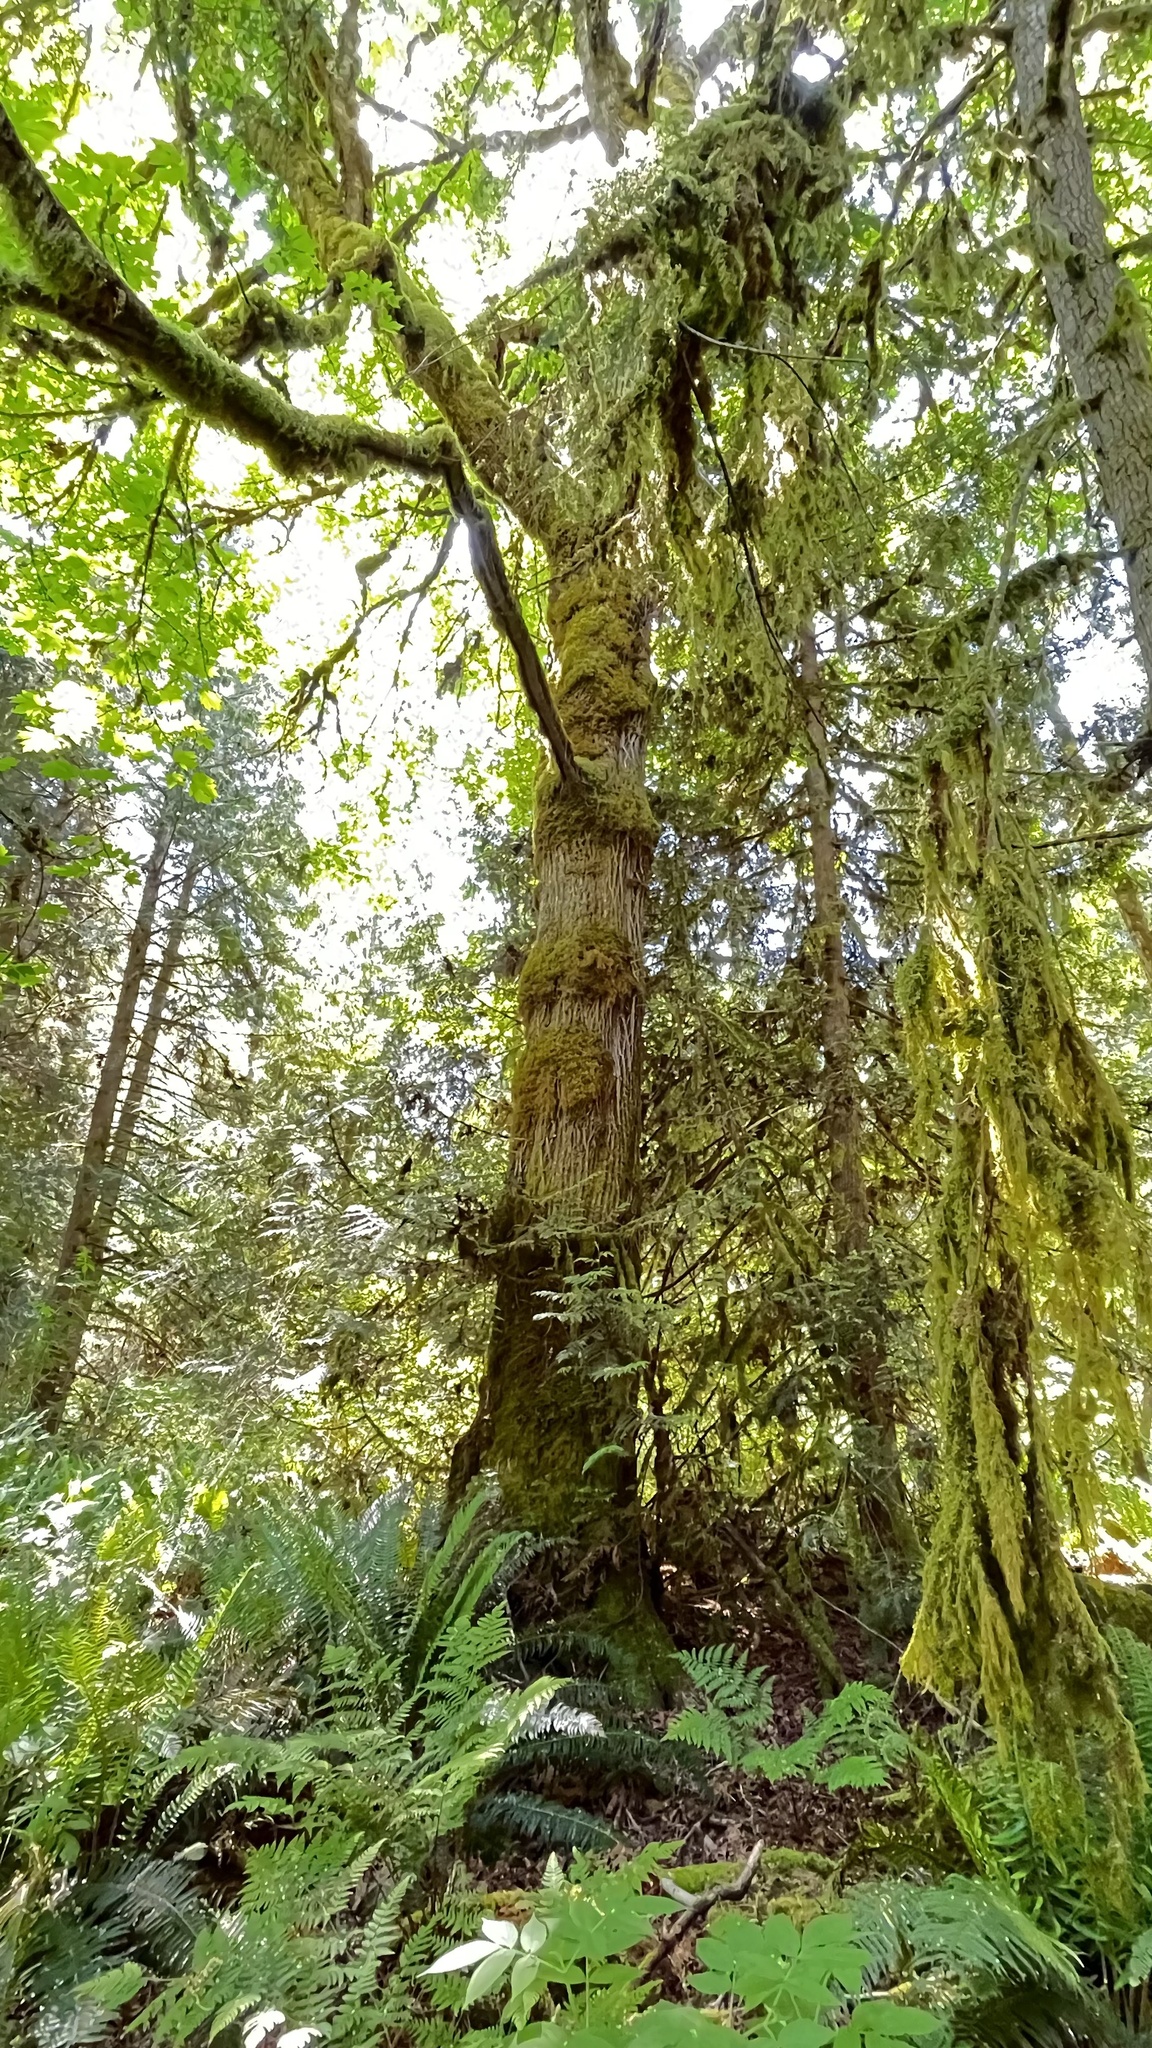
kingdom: Plantae
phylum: Tracheophyta
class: Magnoliopsida
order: Sapindales
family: Sapindaceae
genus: Acer
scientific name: Acer macrophyllum
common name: Oregon maple
